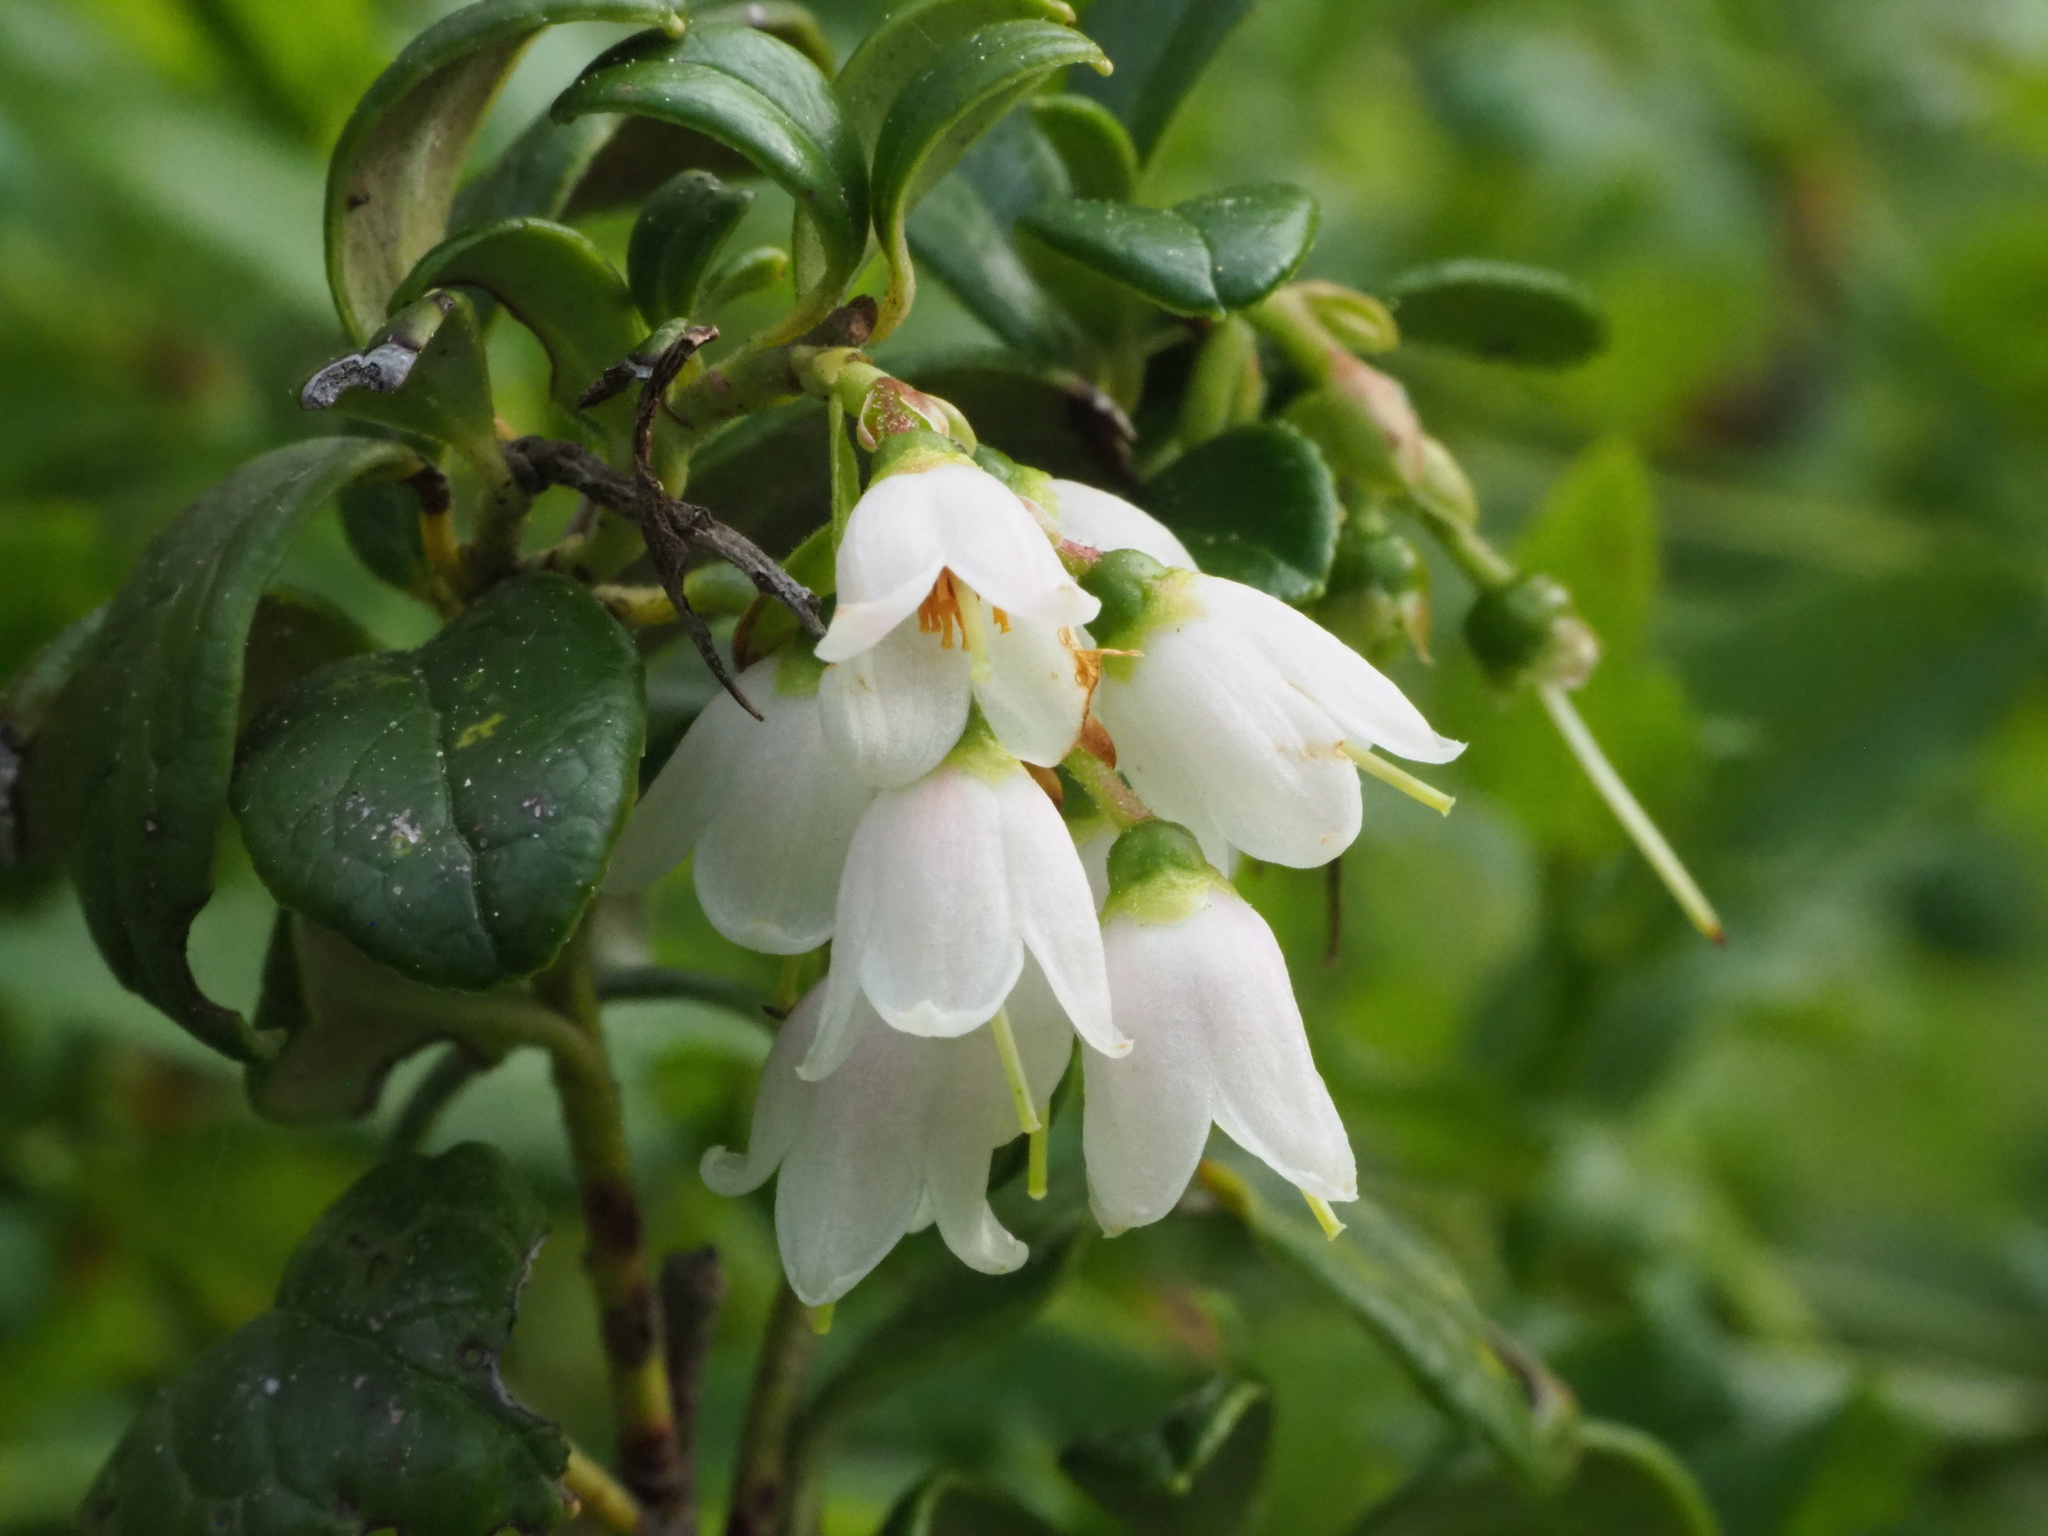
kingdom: Plantae
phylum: Tracheophyta
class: Magnoliopsida
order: Ericales
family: Ericaceae
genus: Vaccinium
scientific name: Vaccinium vitis-idaea
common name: Cowberry
